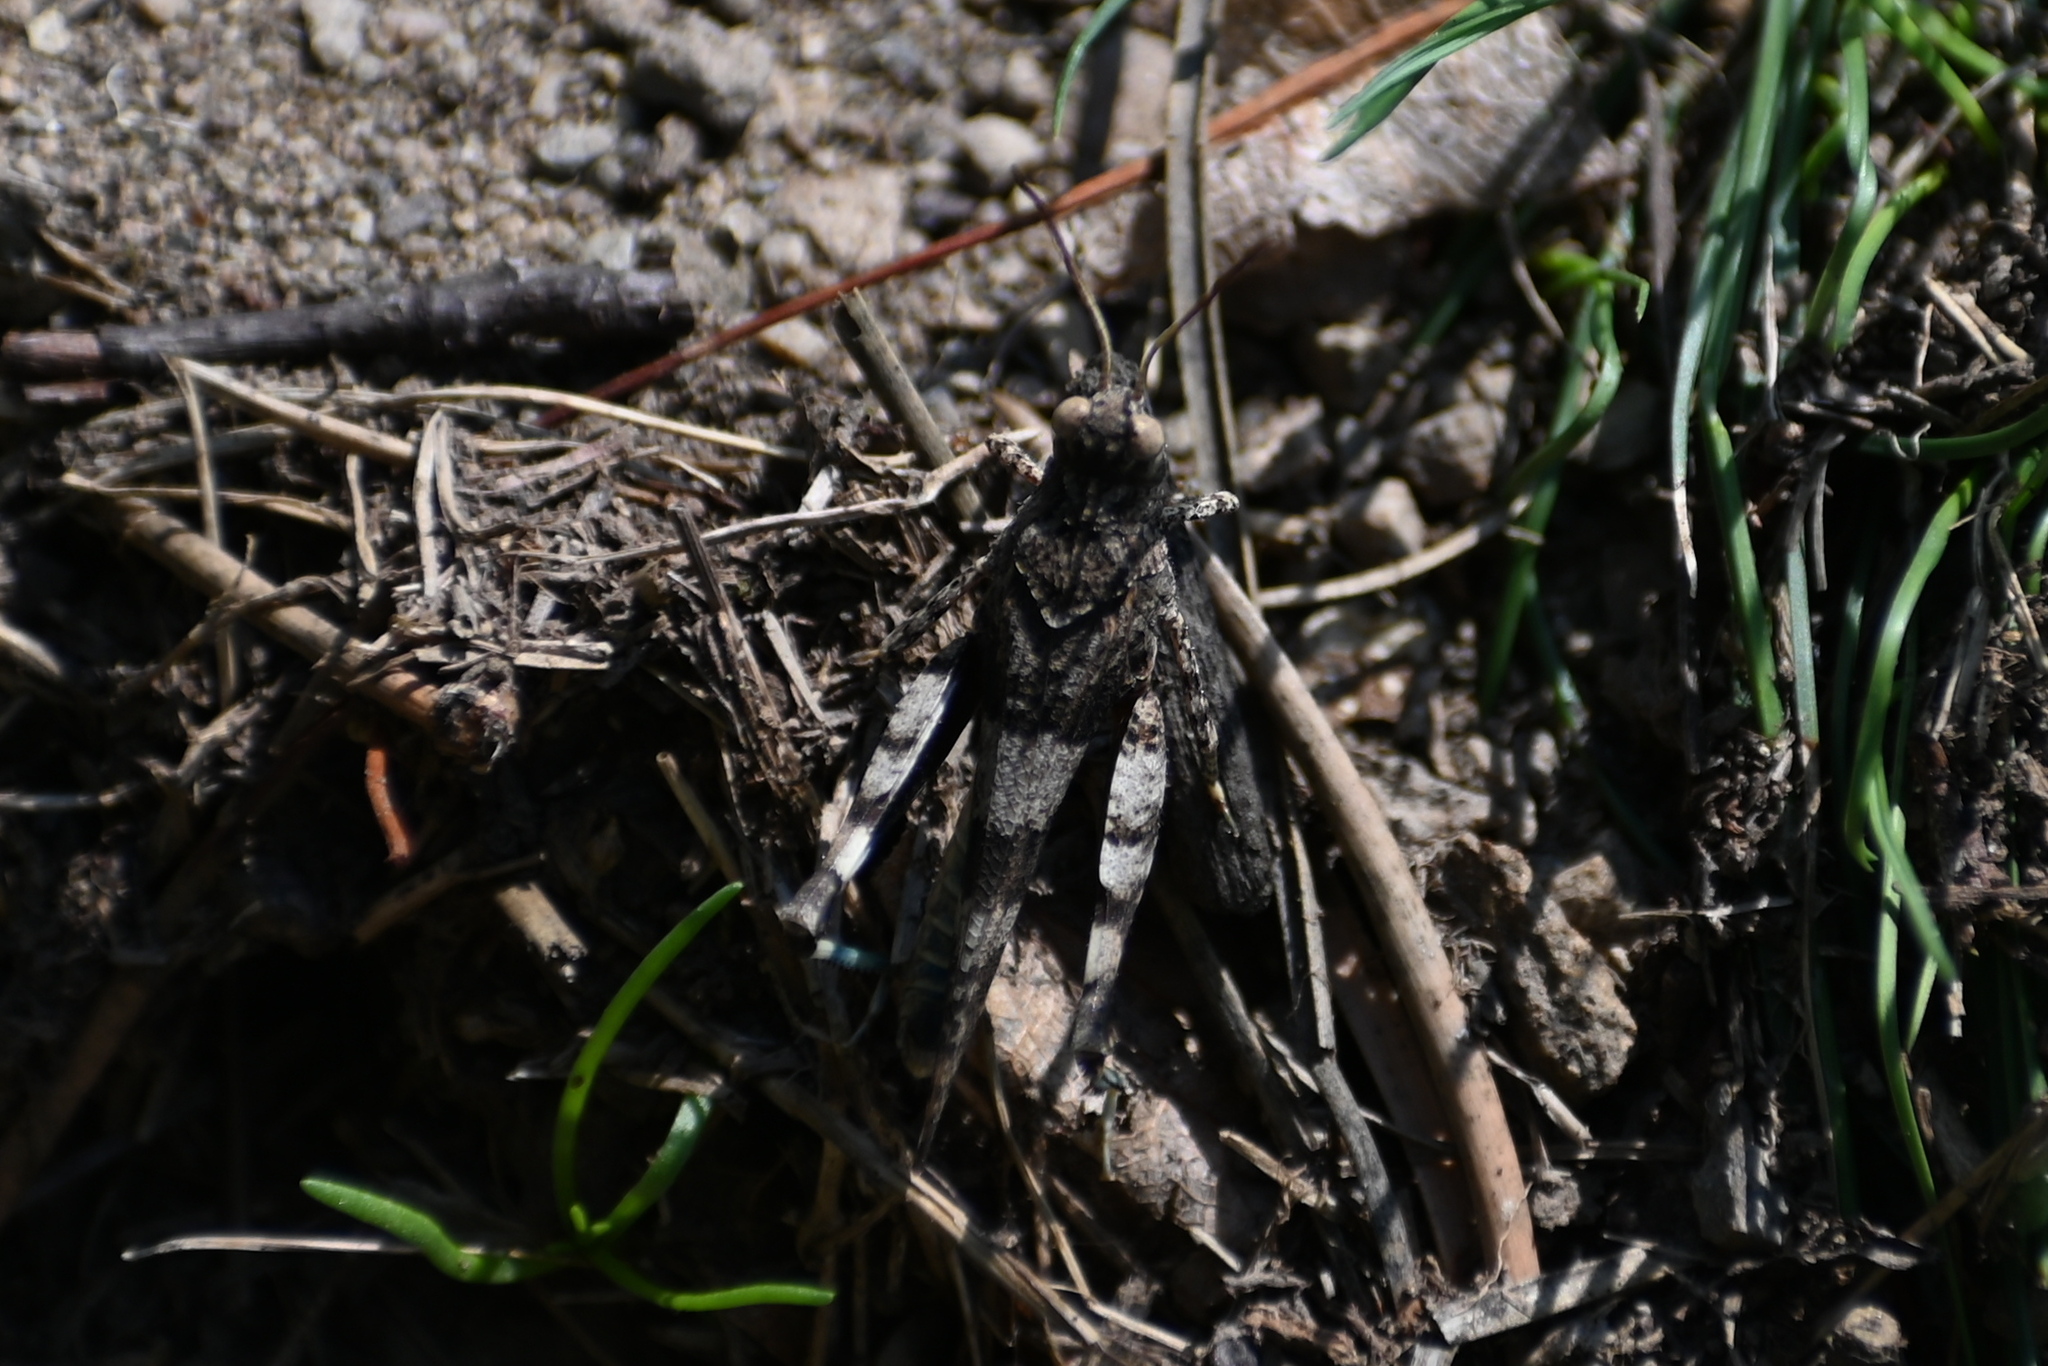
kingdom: Animalia
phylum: Arthropoda
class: Insecta
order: Orthoptera
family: Acrididae
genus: Oedipoda
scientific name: Oedipoda caerulescens
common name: Blue-winged grasshopper
